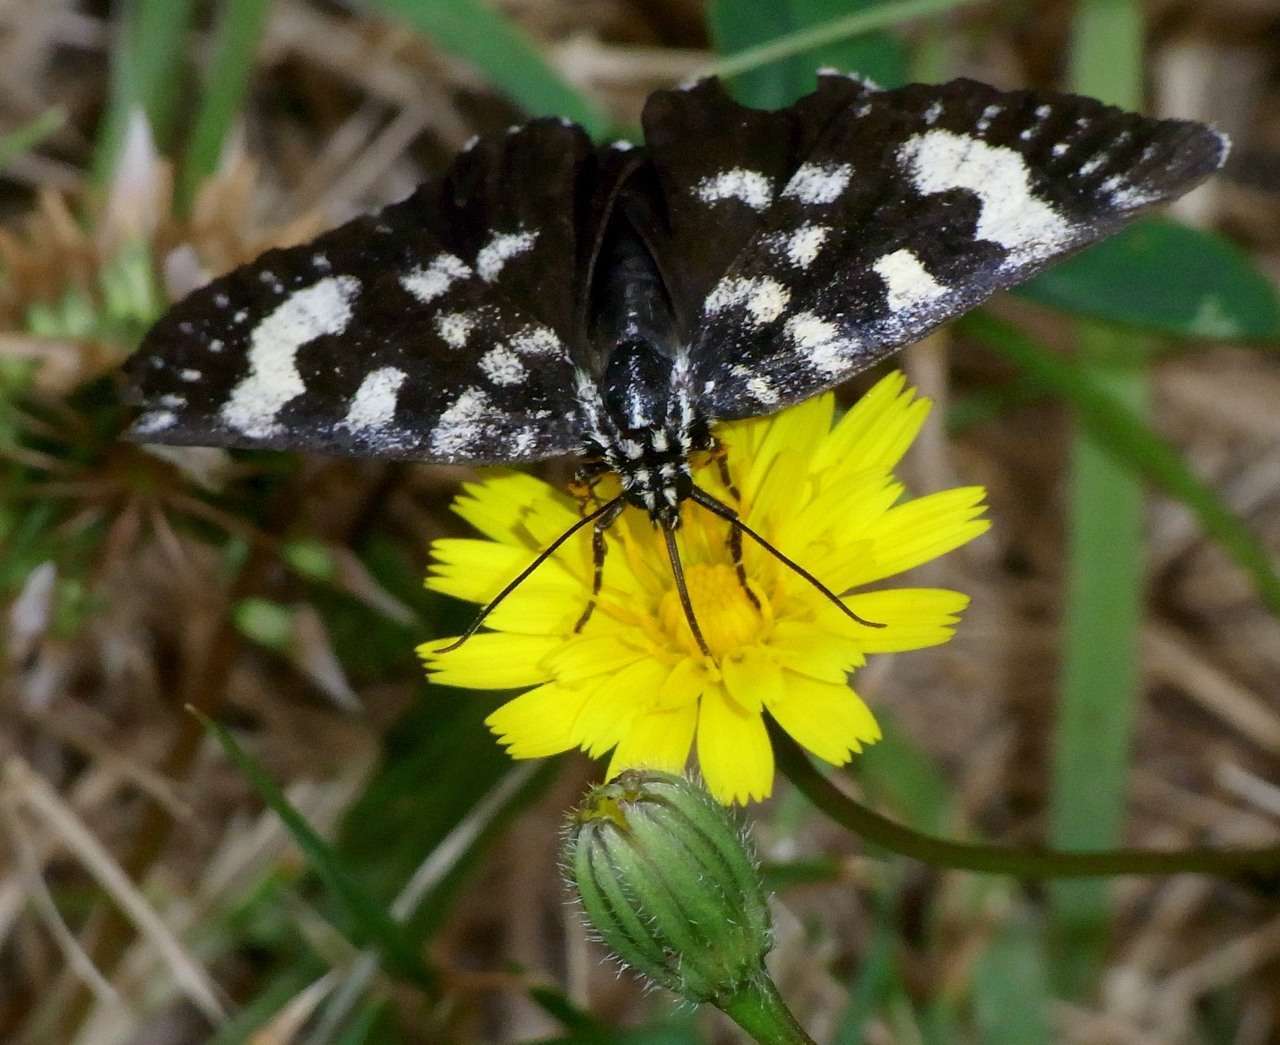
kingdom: Animalia
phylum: Arthropoda
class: Insecta
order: Lepidoptera
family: Noctuidae
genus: Phalaenoides
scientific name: Phalaenoides tristifica
